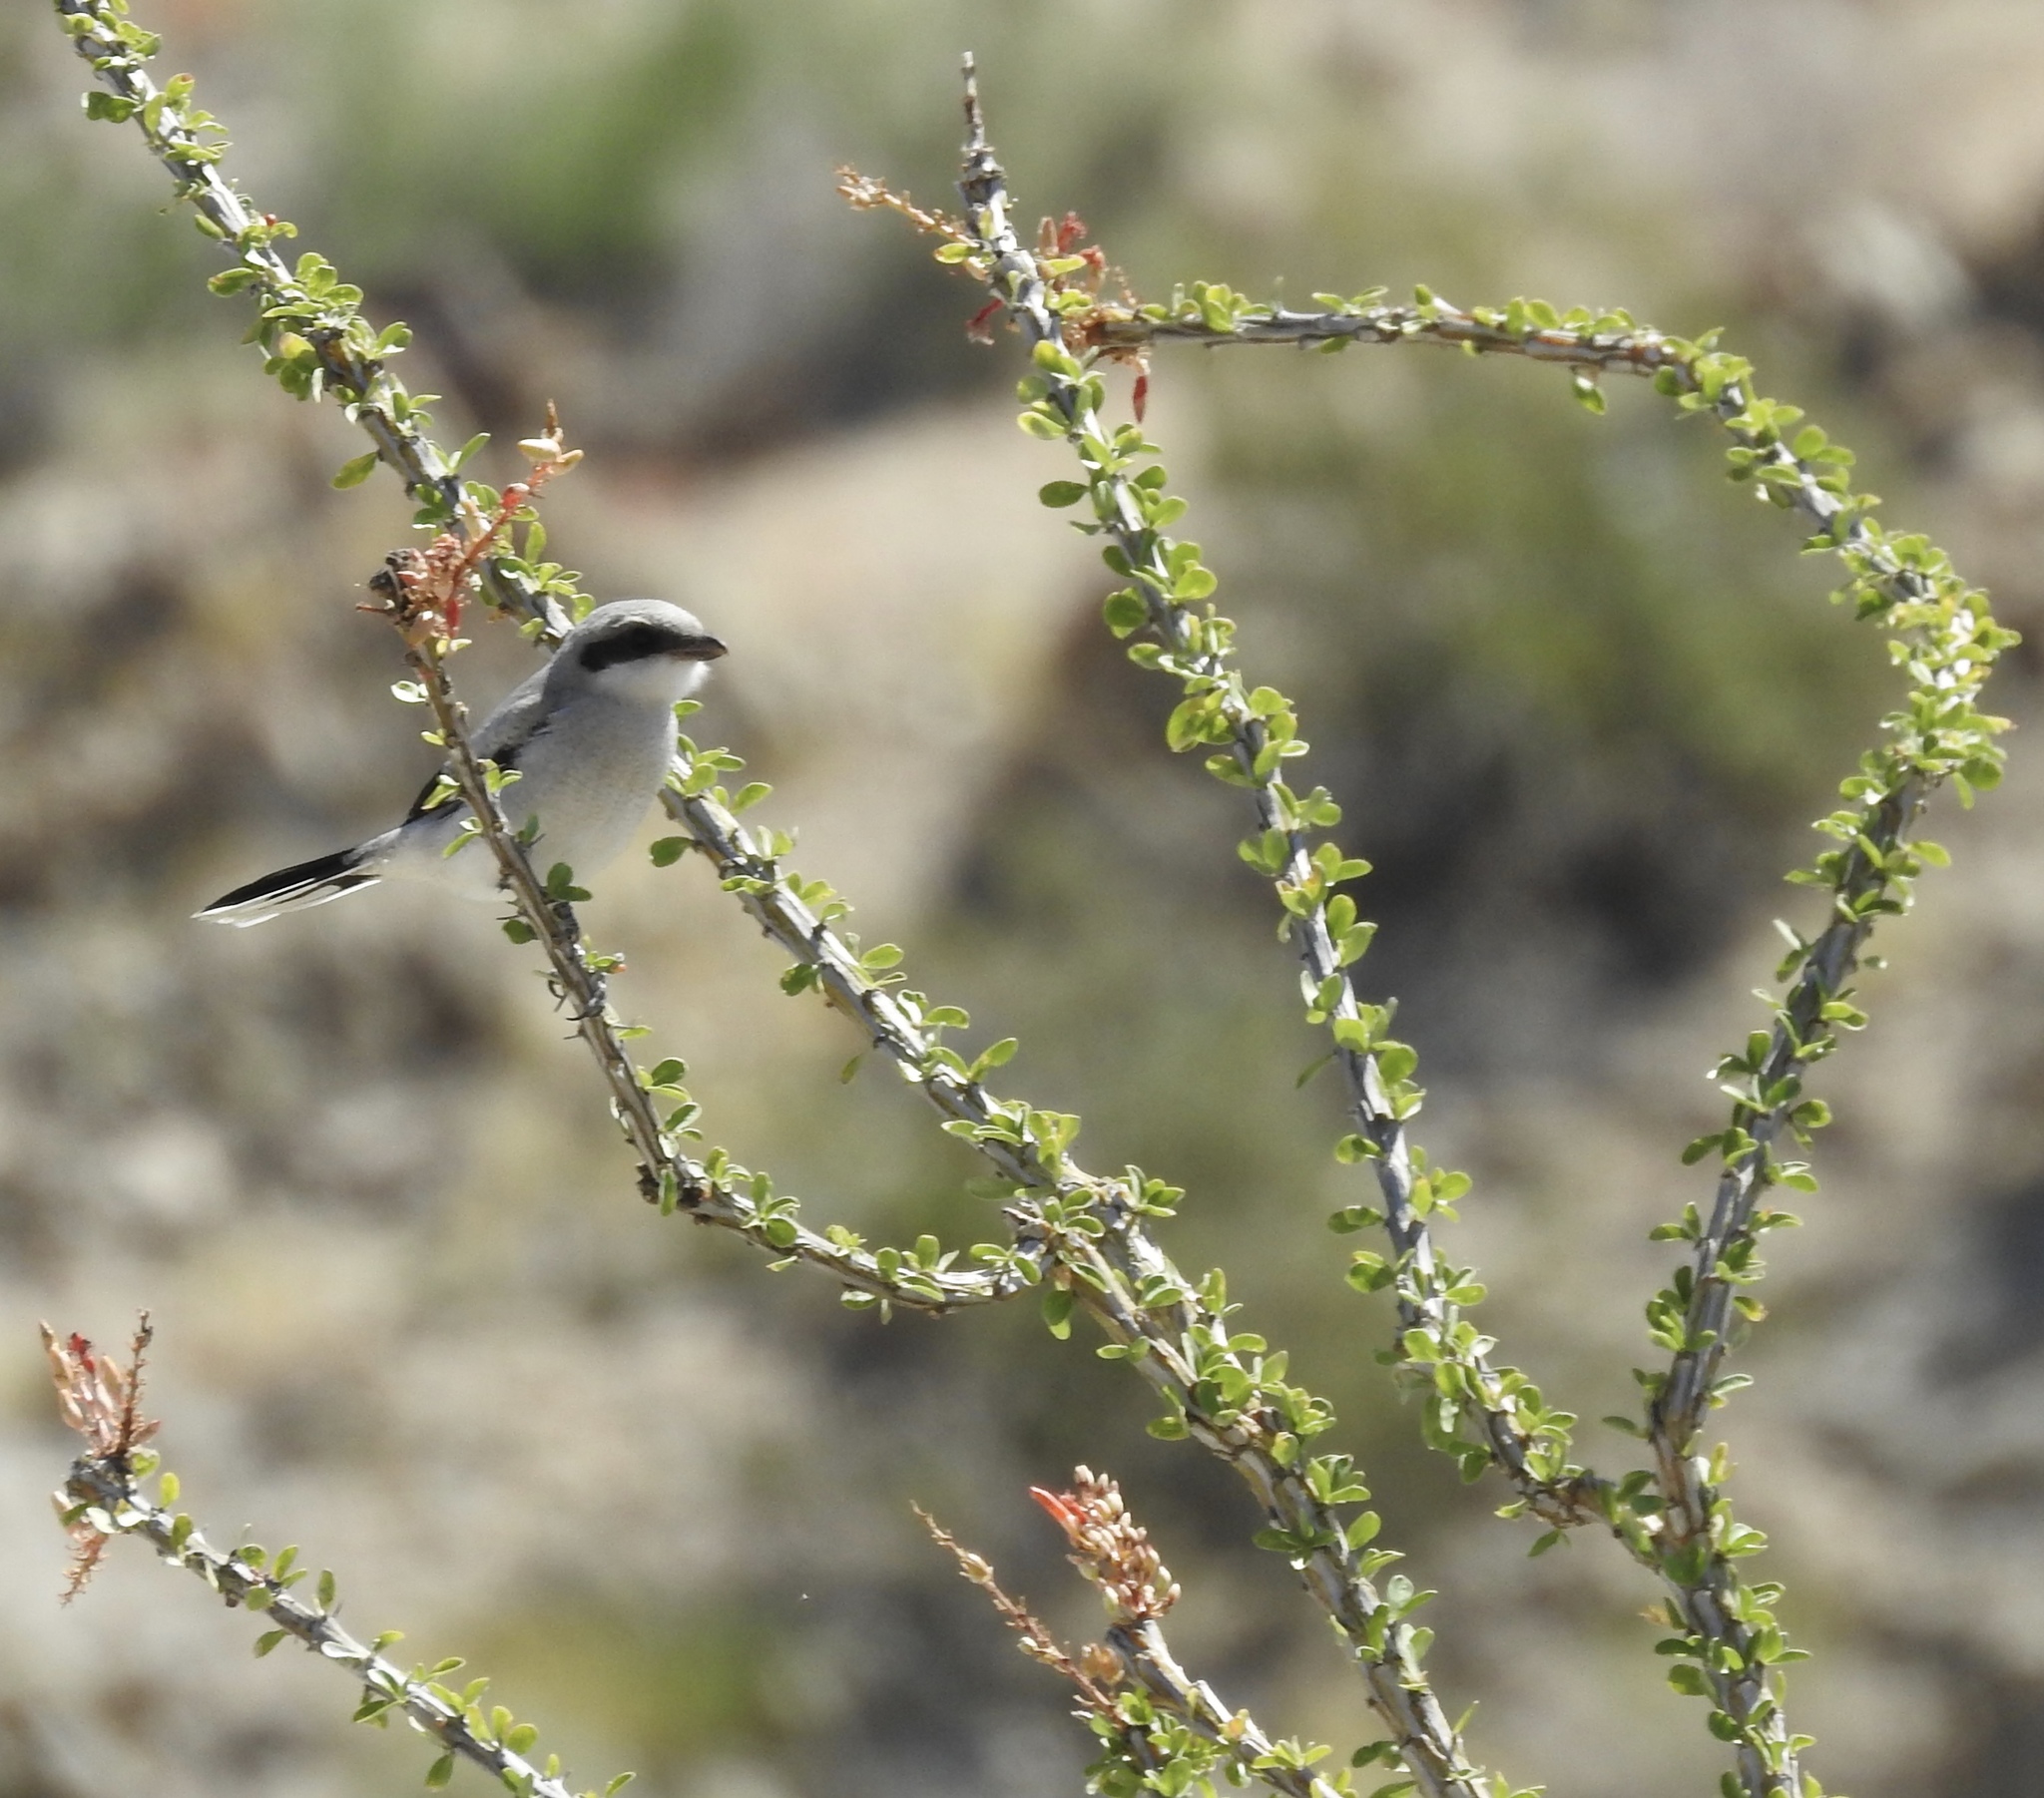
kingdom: Animalia
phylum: Chordata
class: Aves
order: Passeriformes
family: Laniidae
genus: Lanius
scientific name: Lanius ludovicianus
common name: Loggerhead shrike
